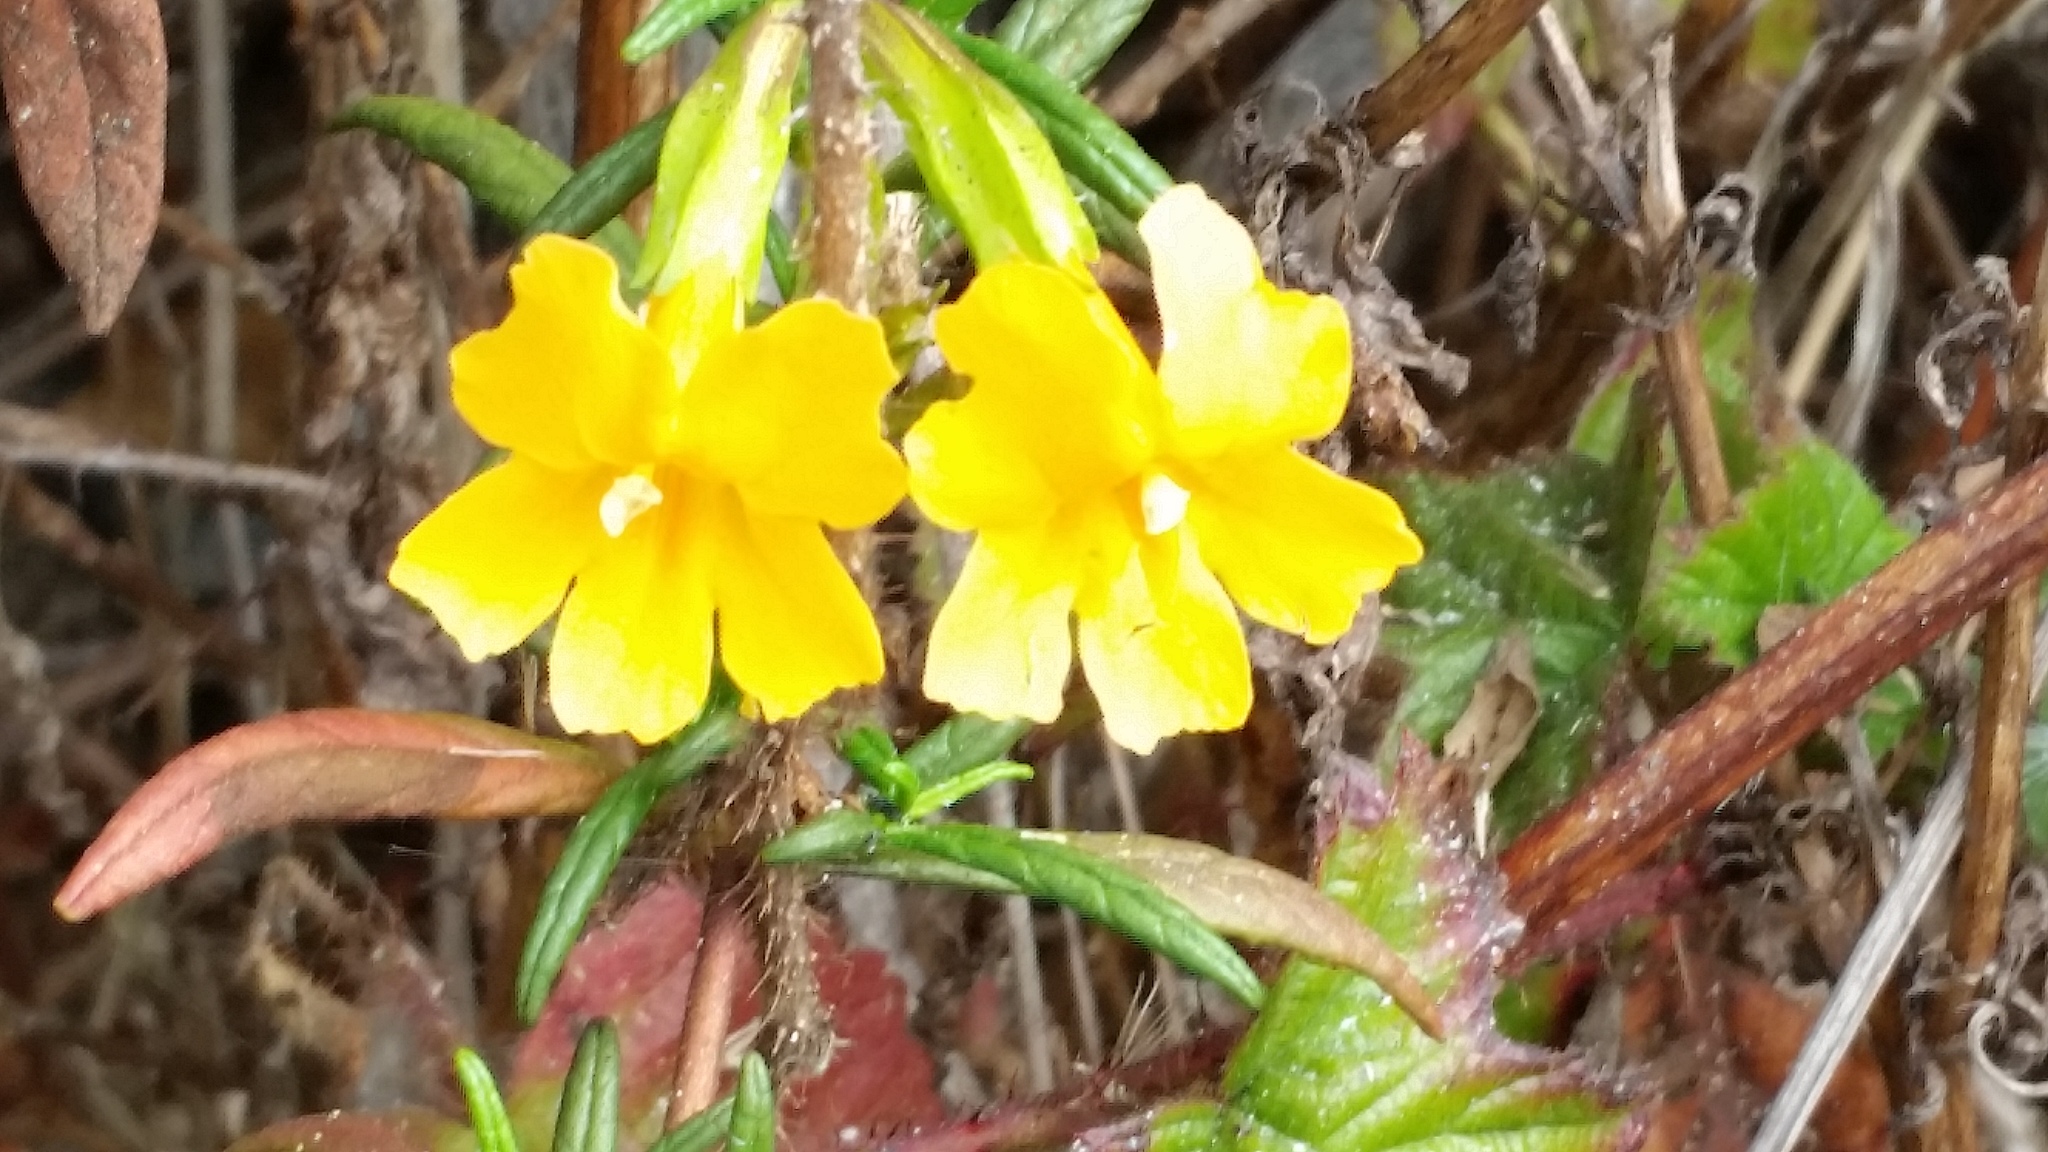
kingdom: Plantae
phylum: Tracheophyta
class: Magnoliopsida
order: Lamiales
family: Phrymaceae
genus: Diplacus
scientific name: Diplacus aurantiacus
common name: Bush monkey-flower
